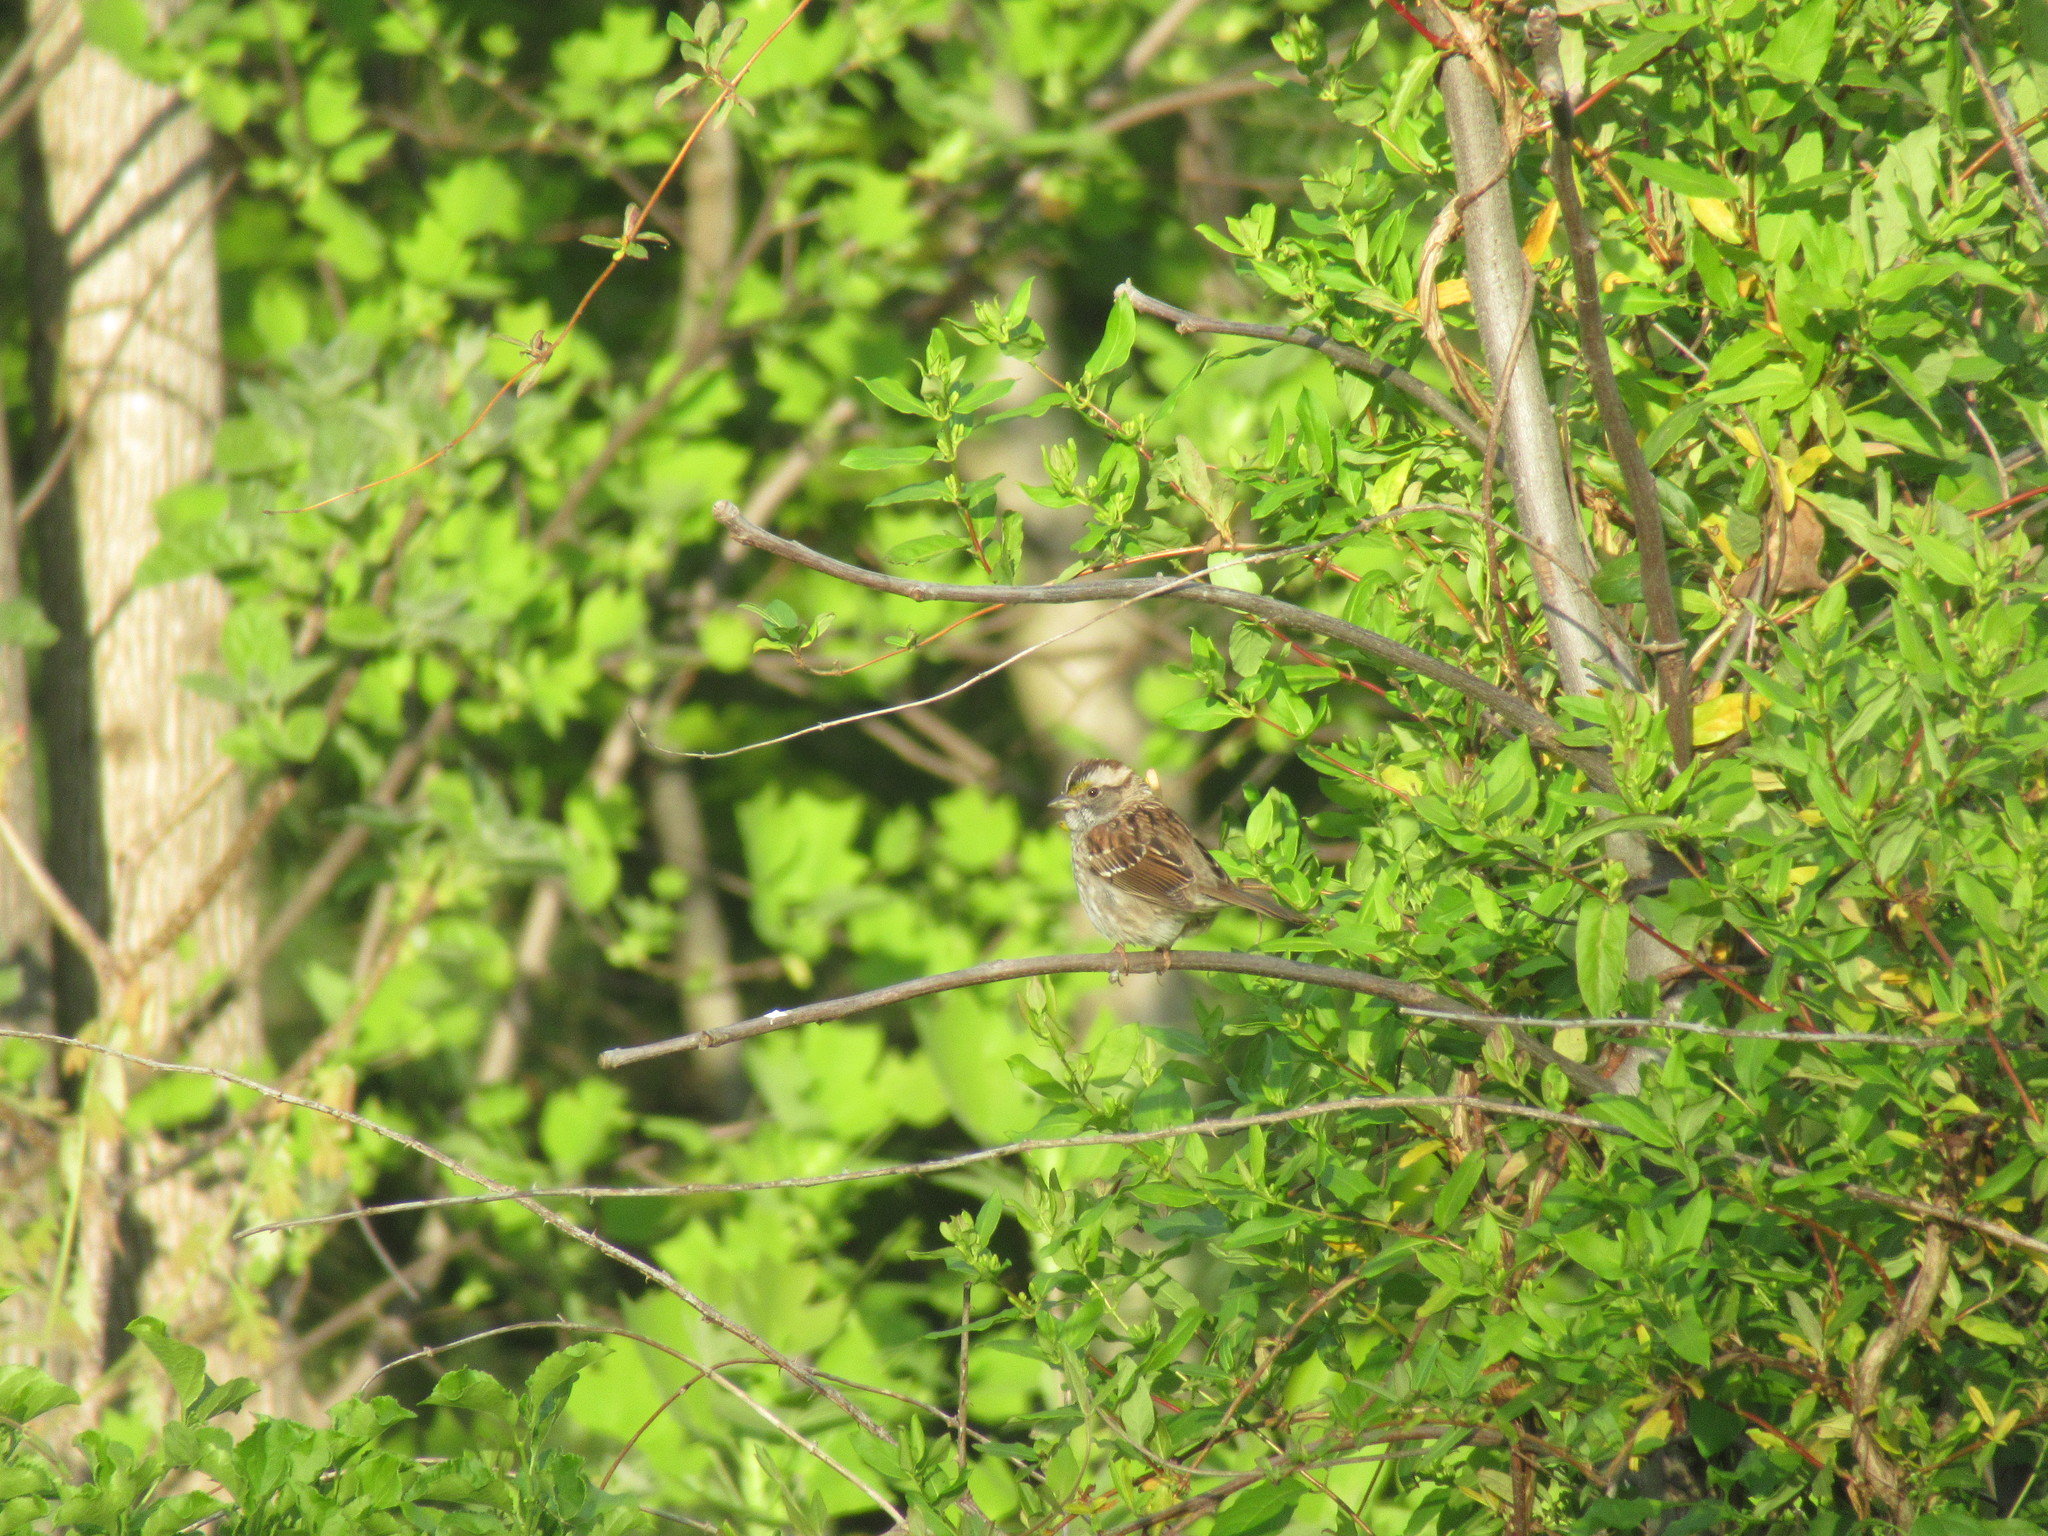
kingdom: Animalia
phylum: Chordata
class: Aves
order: Passeriformes
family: Passerellidae
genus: Zonotrichia
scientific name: Zonotrichia albicollis
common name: White-throated sparrow
